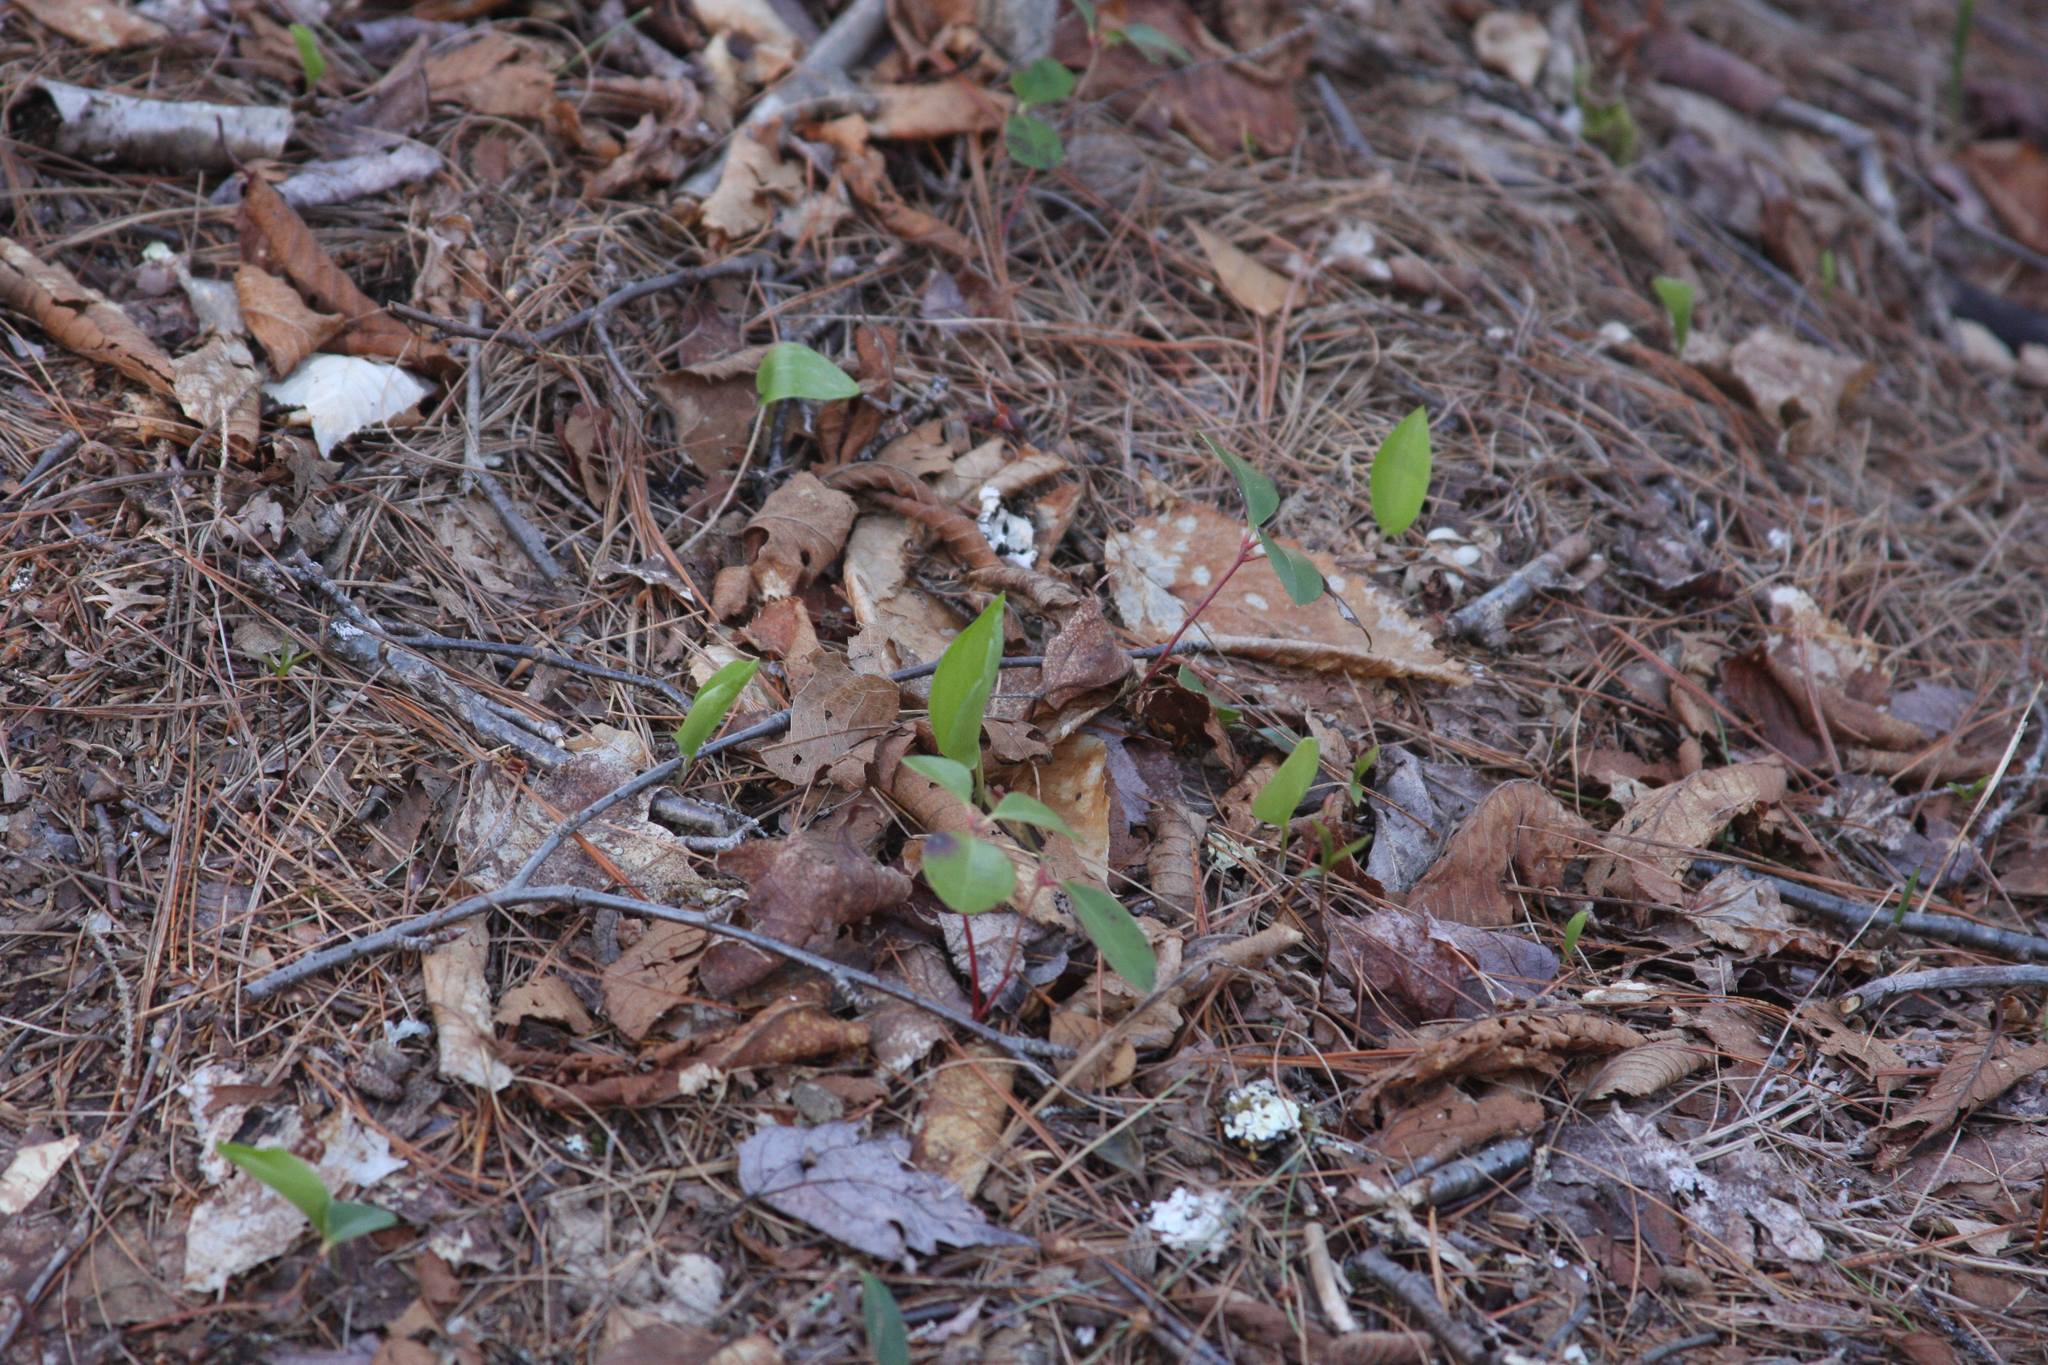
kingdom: Plantae
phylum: Tracheophyta
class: Liliopsida
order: Asparagales
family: Asparagaceae
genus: Maianthemum
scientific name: Maianthemum canadense
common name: False lily-of-the-valley
